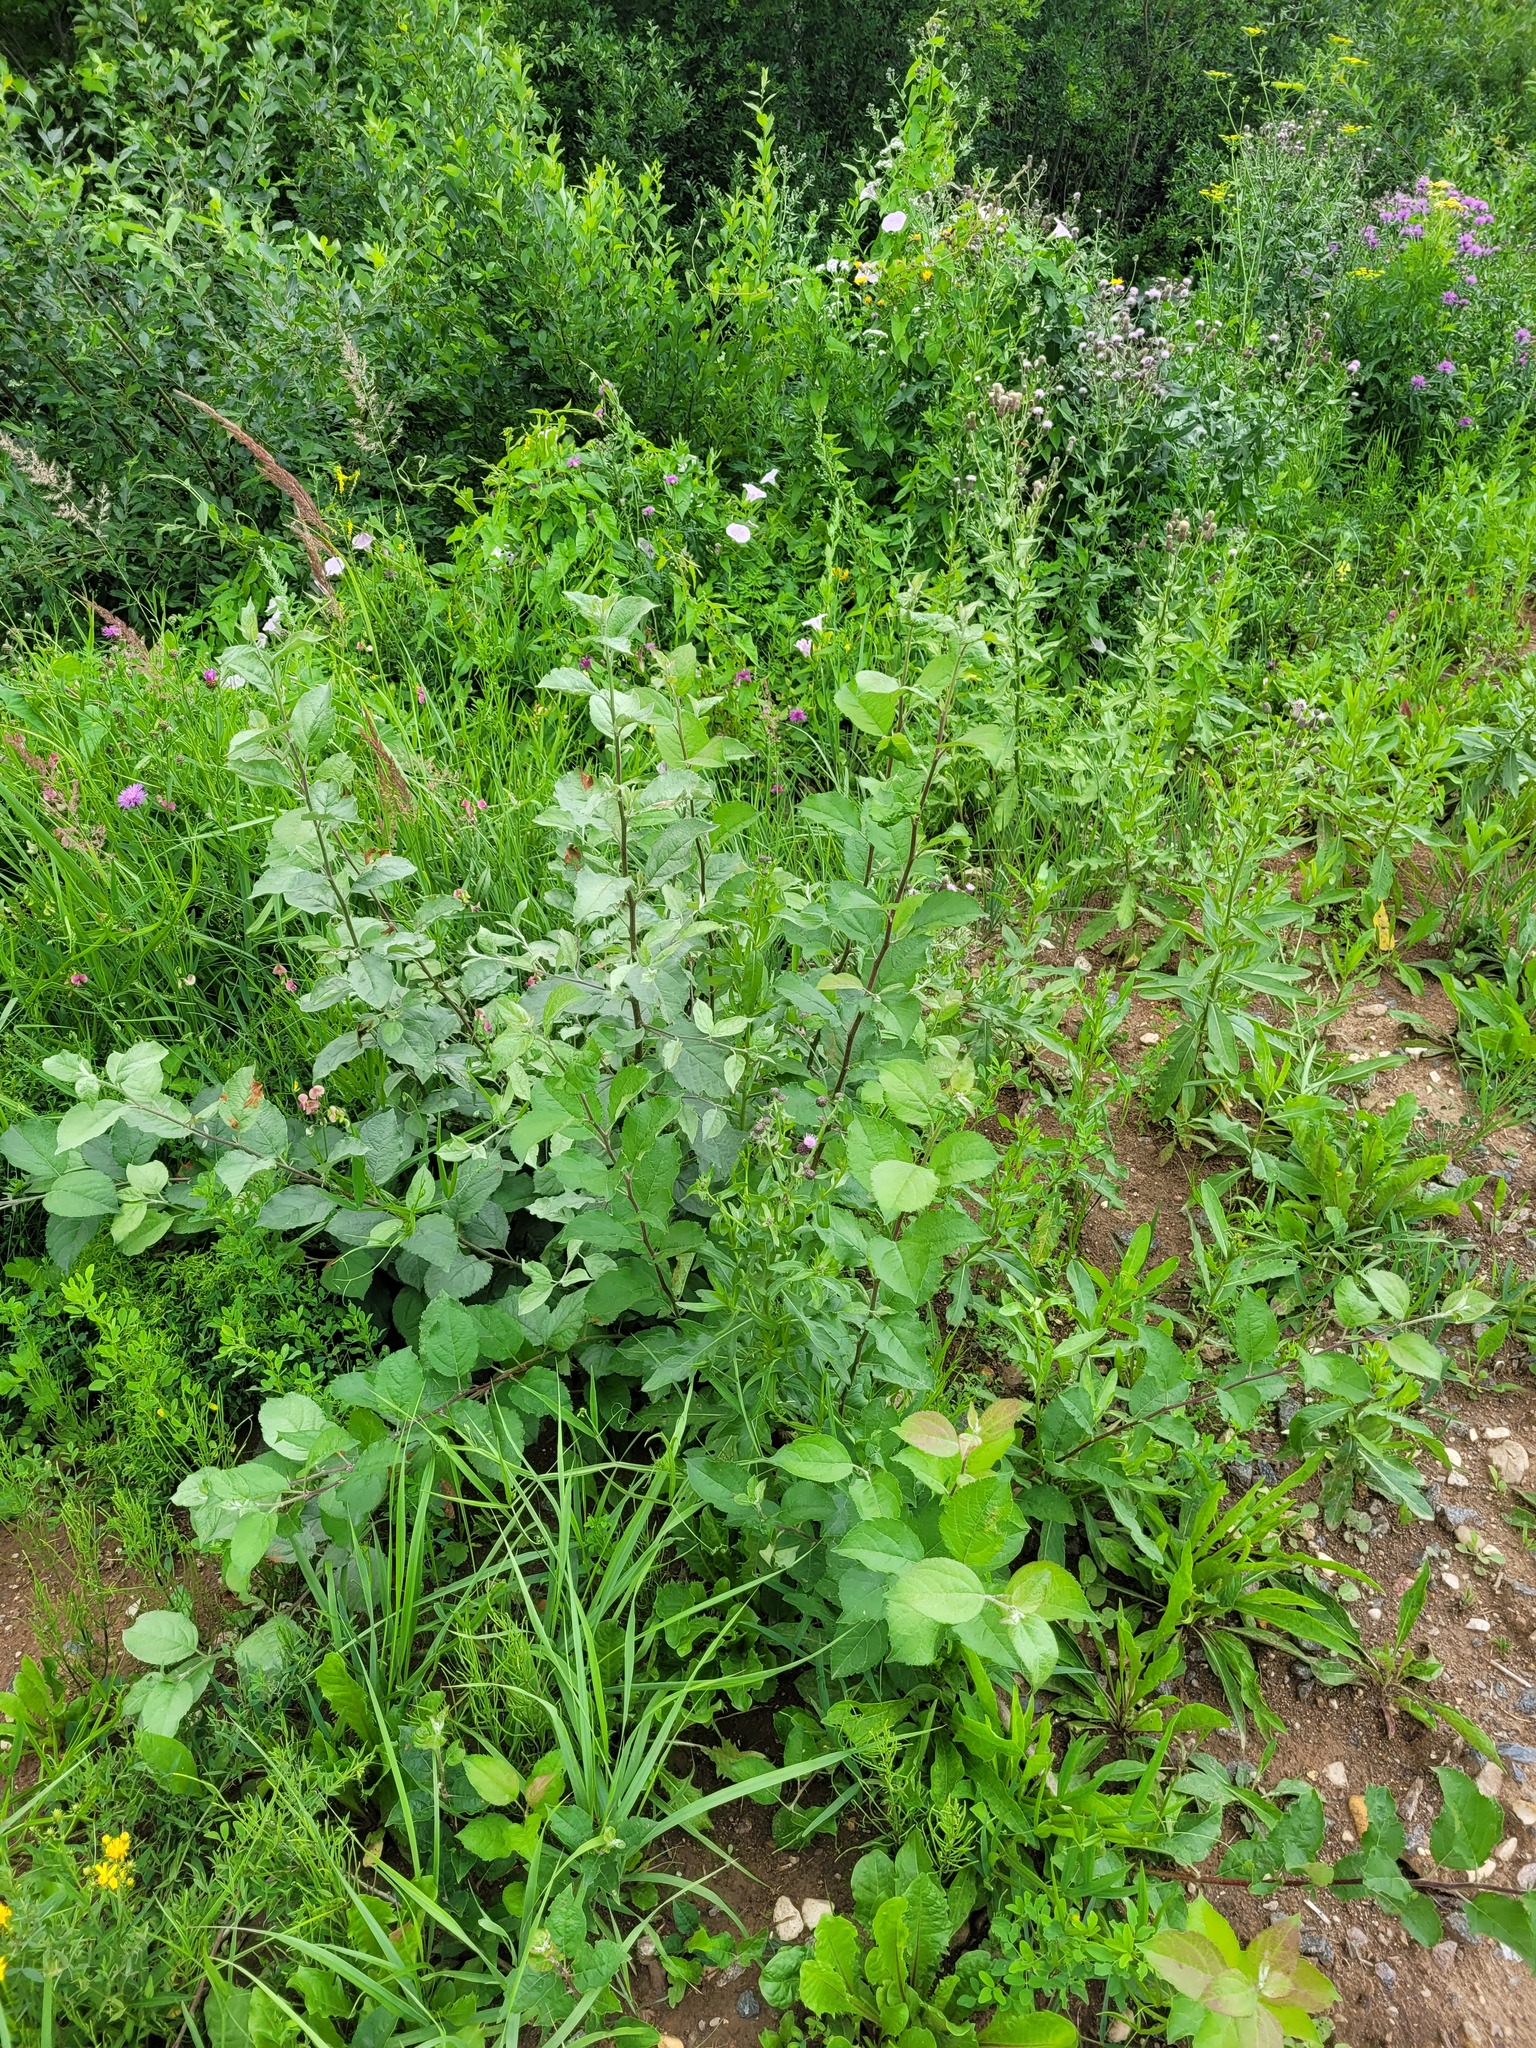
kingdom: Plantae
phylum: Tracheophyta
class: Magnoliopsida
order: Rosales
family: Rosaceae
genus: Malus
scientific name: Malus domestica
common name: Apple
